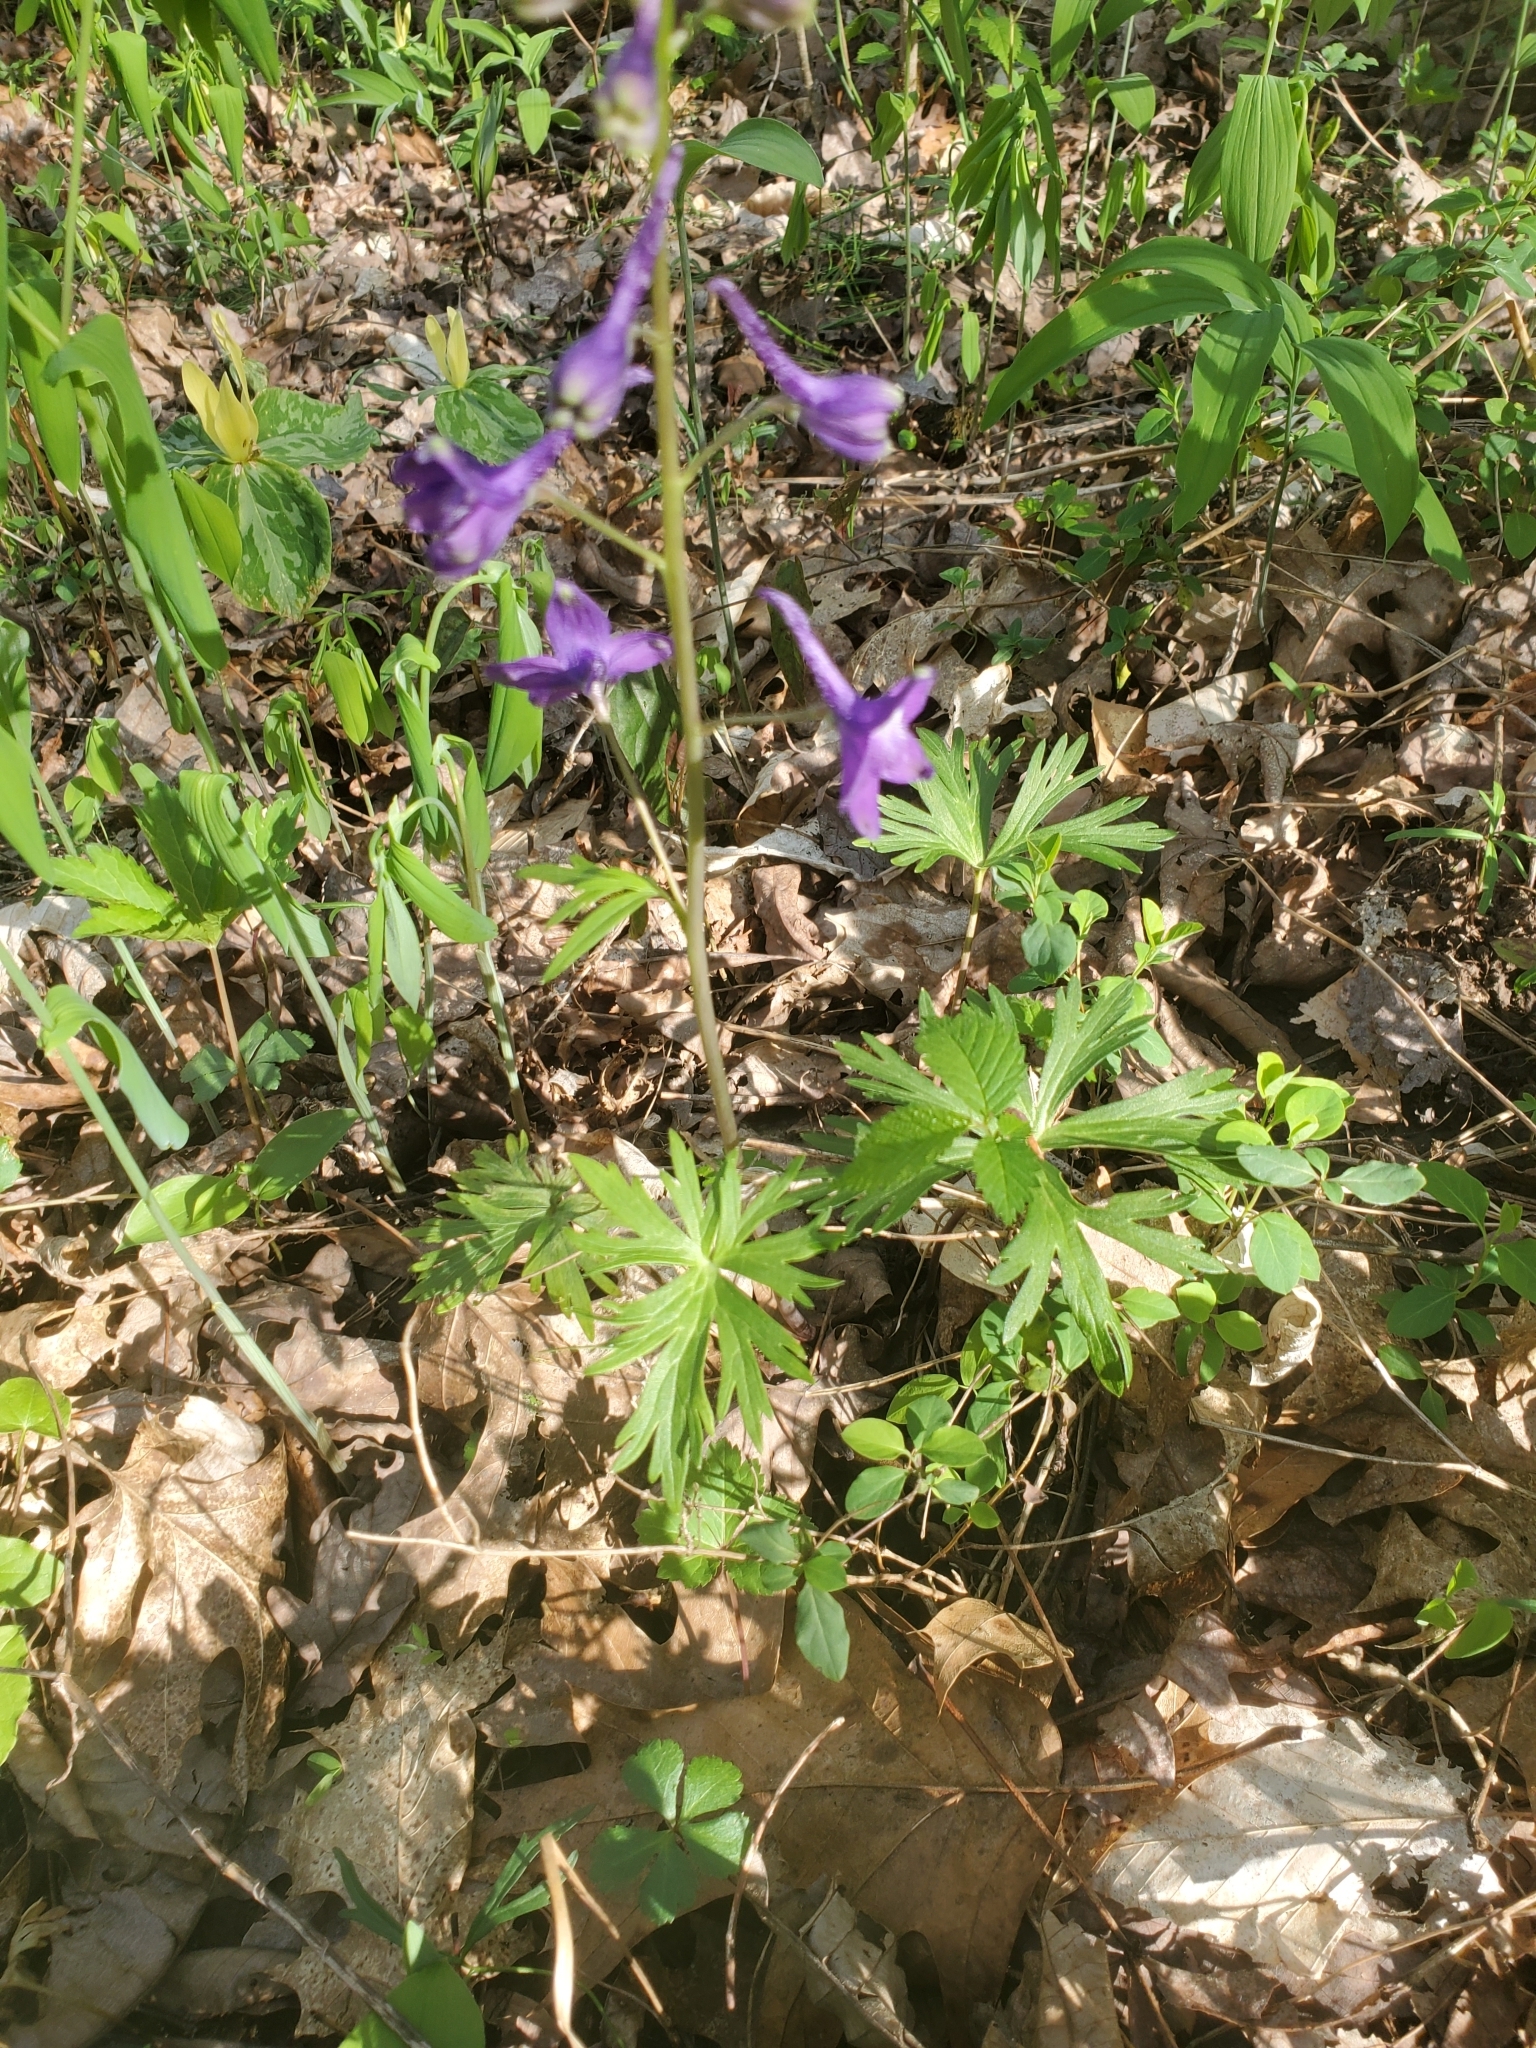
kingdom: Plantae
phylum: Tracheophyta
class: Magnoliopsida
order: Ranunculales
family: Ranunculaceae
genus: Delphinium
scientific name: Delphinium tricorne
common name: Dwarf larkspur
